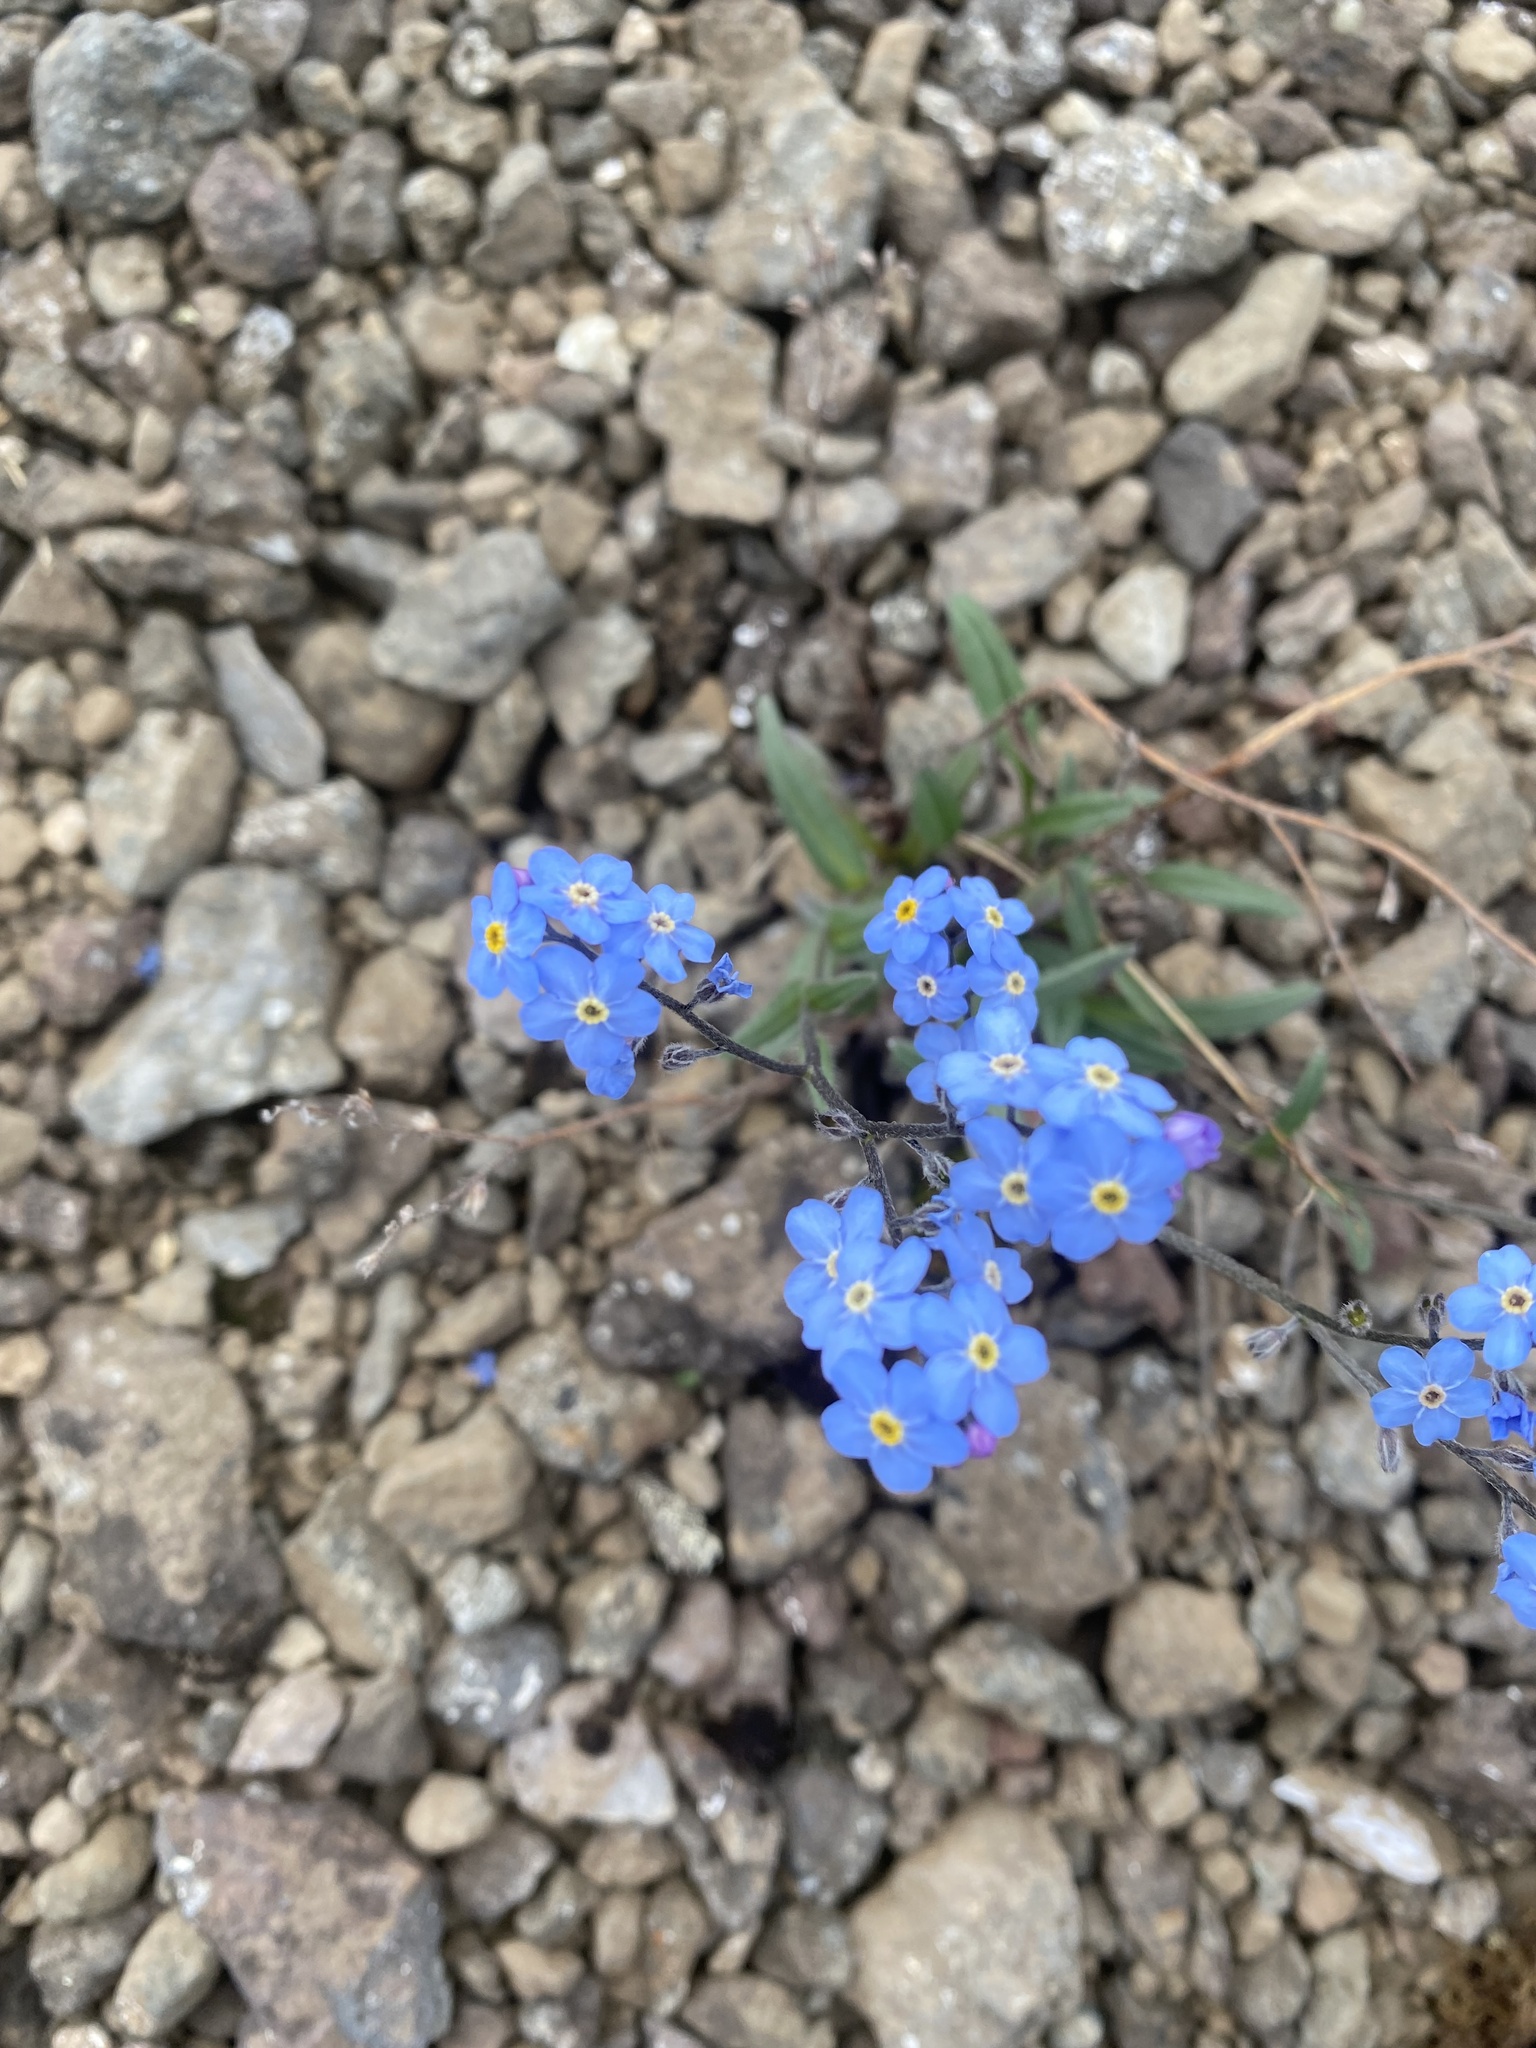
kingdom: Plantae
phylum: Tracheophyta
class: Magnoliopsida
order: Boraginales
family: Boraginaceae
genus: Myosotis
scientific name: Myosotis asiatica
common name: Asian forget-me-not
